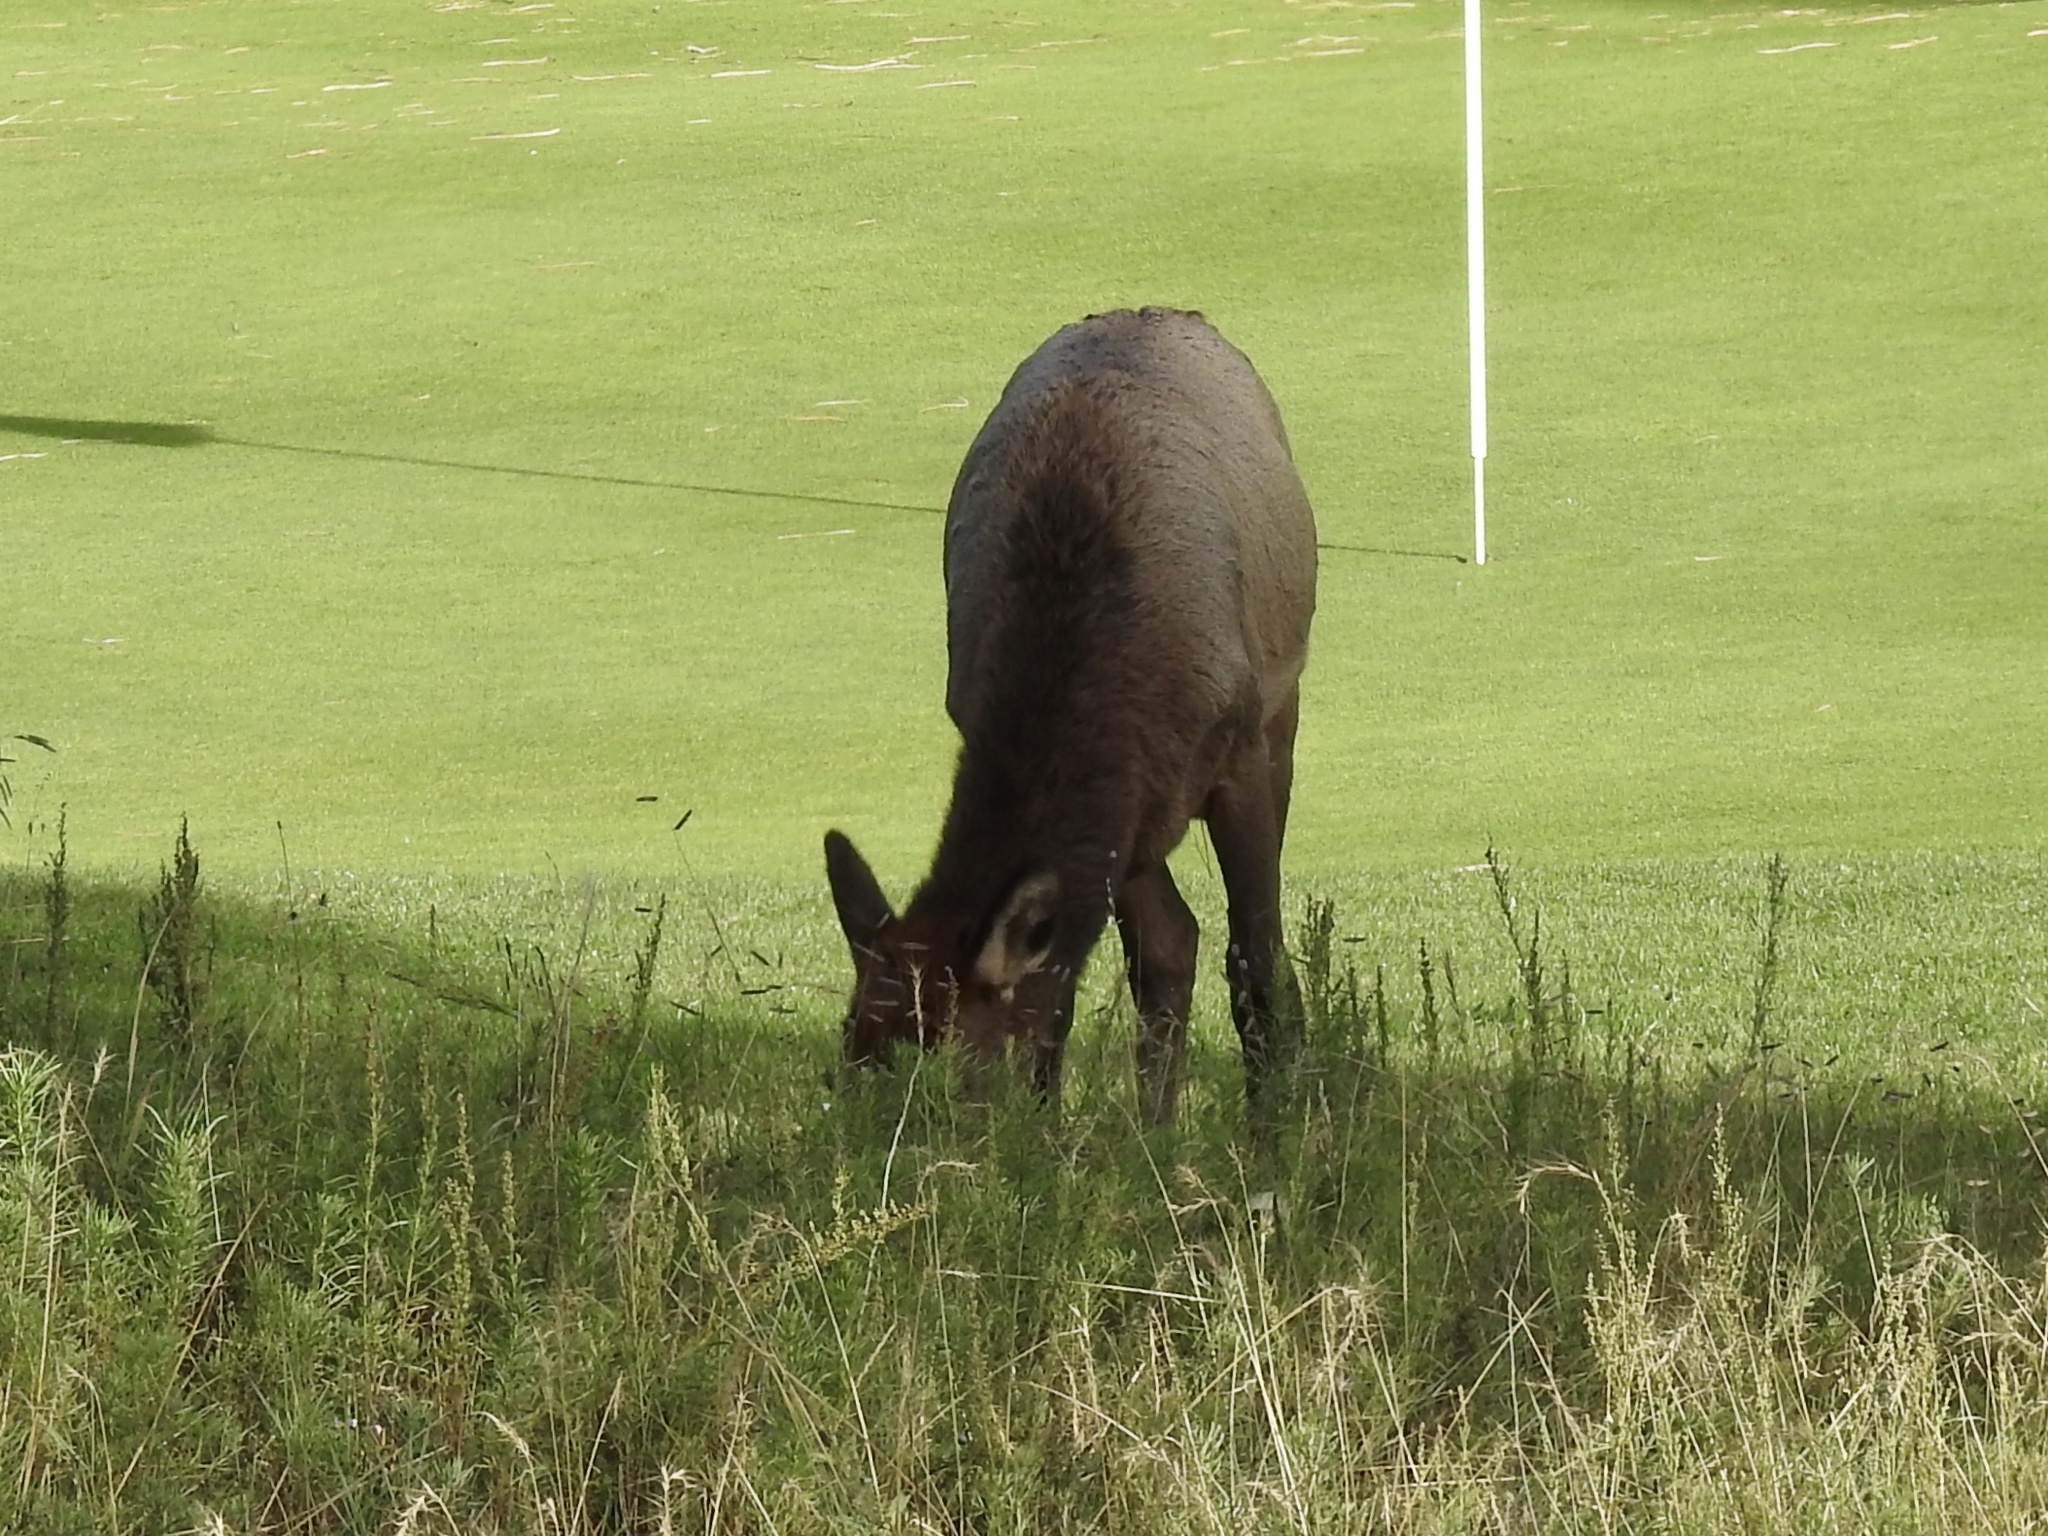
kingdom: Animalia
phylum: Chordata
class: Mammalia
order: Artiodactyla
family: Cervidae
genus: Cervus
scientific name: Cervus elaphus
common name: Red deer
